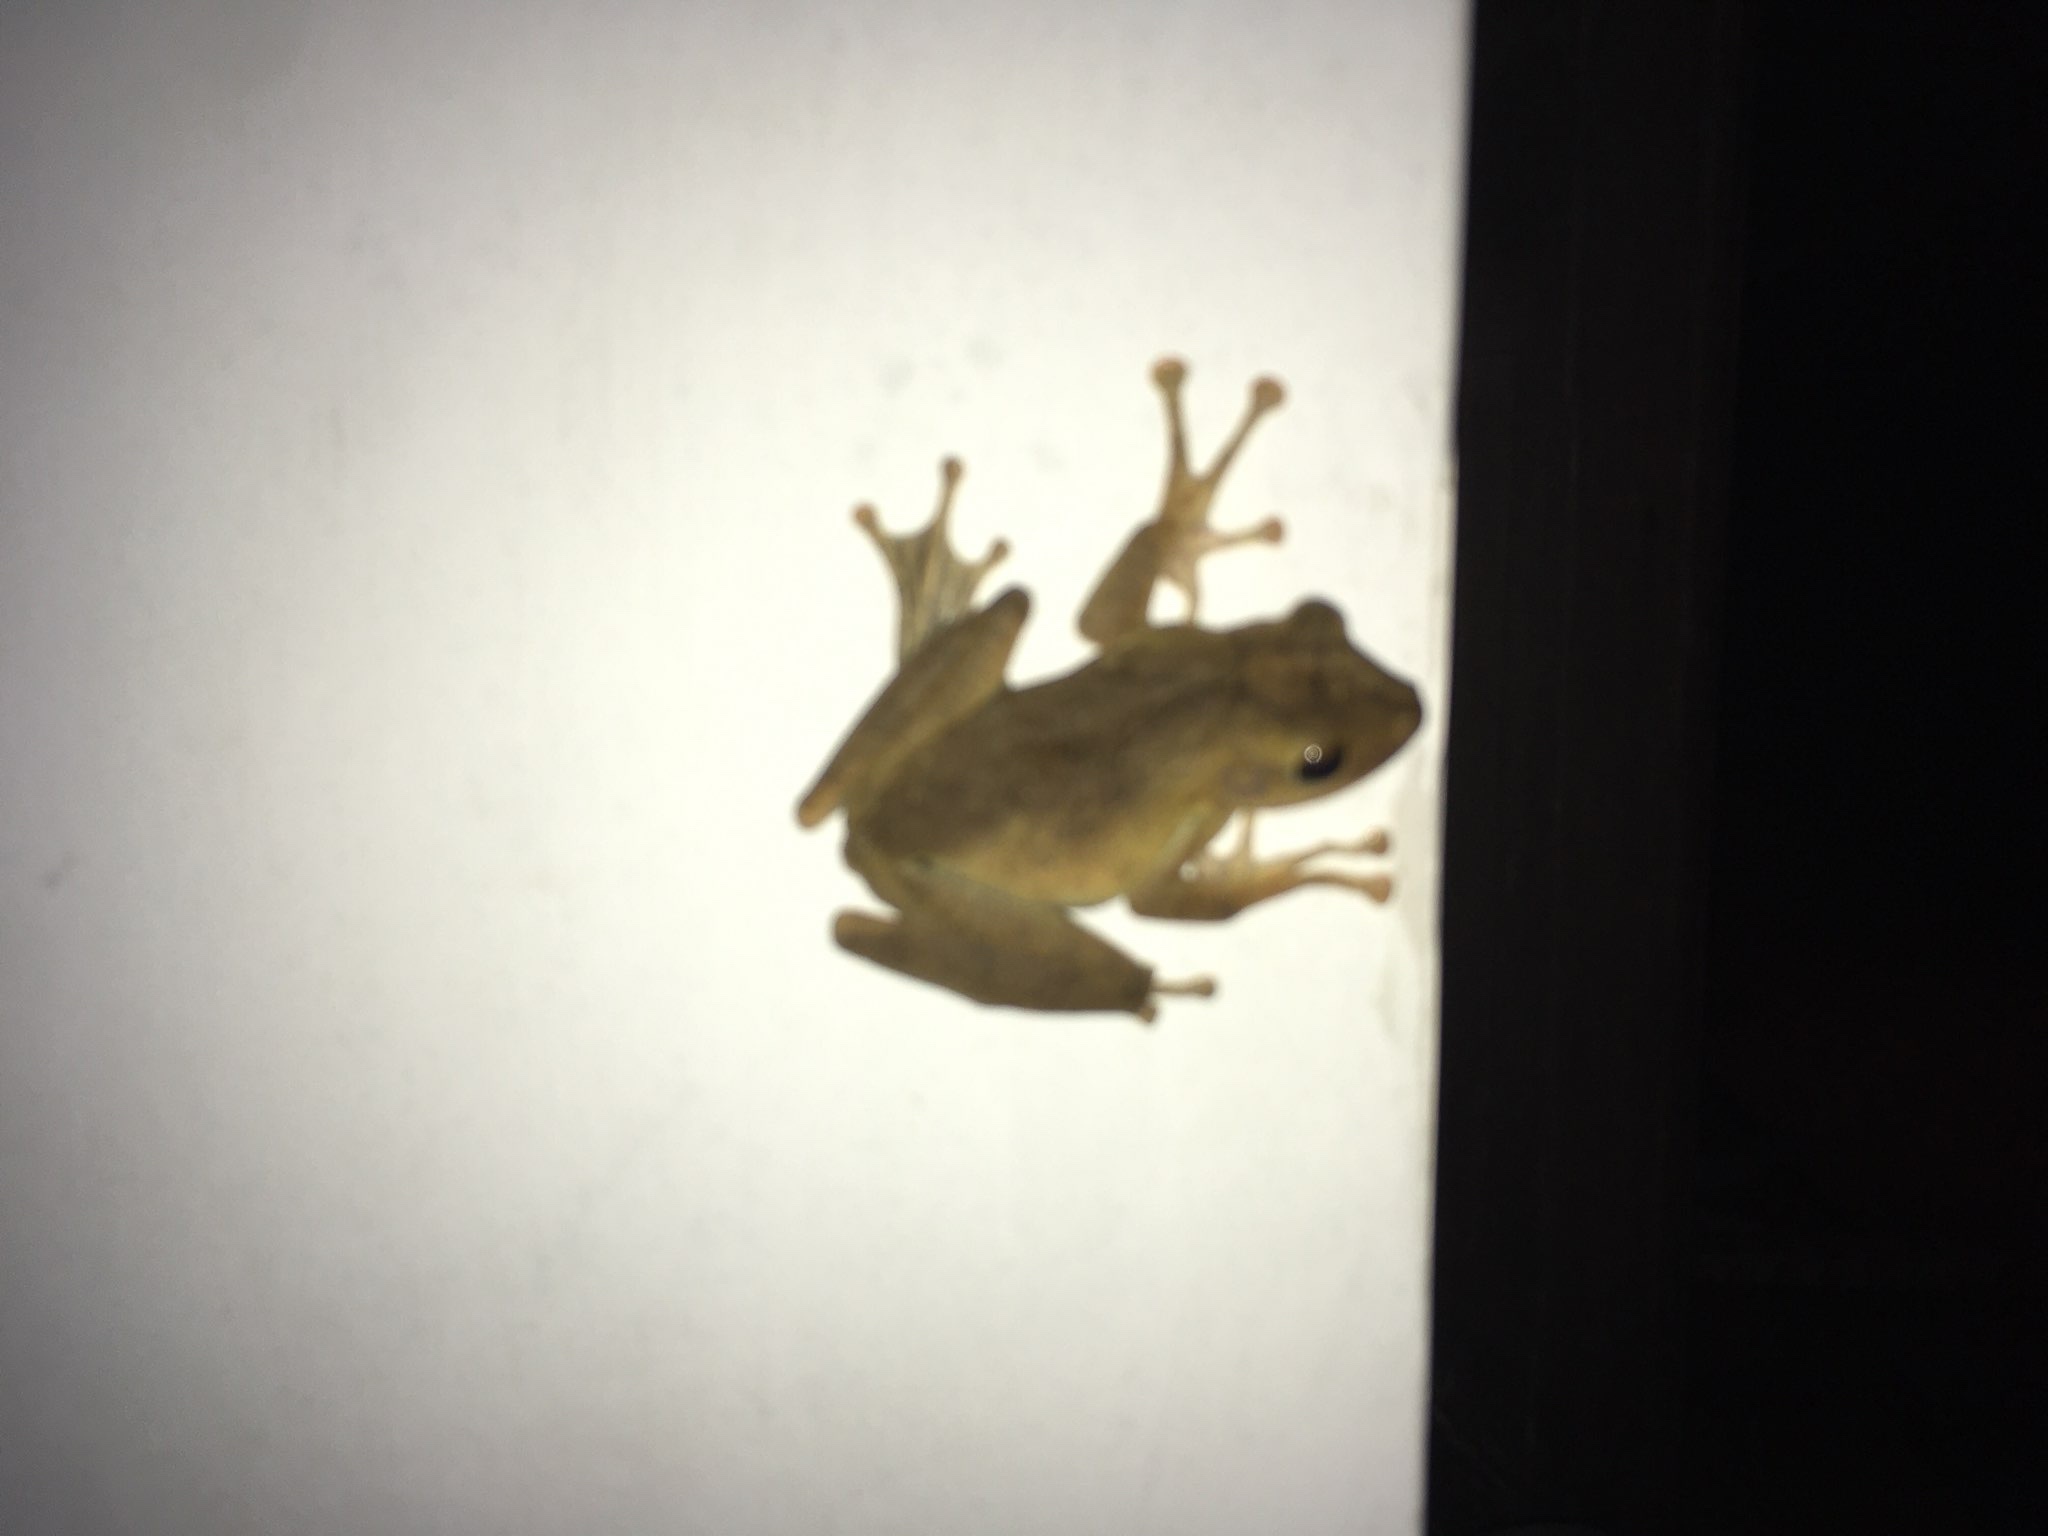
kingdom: Animalia
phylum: Chordata
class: Amphibia
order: Anura
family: Rhacophoridae
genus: Polypedates
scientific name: Polypedates cruciger
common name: Common hour-glass tree-frog
